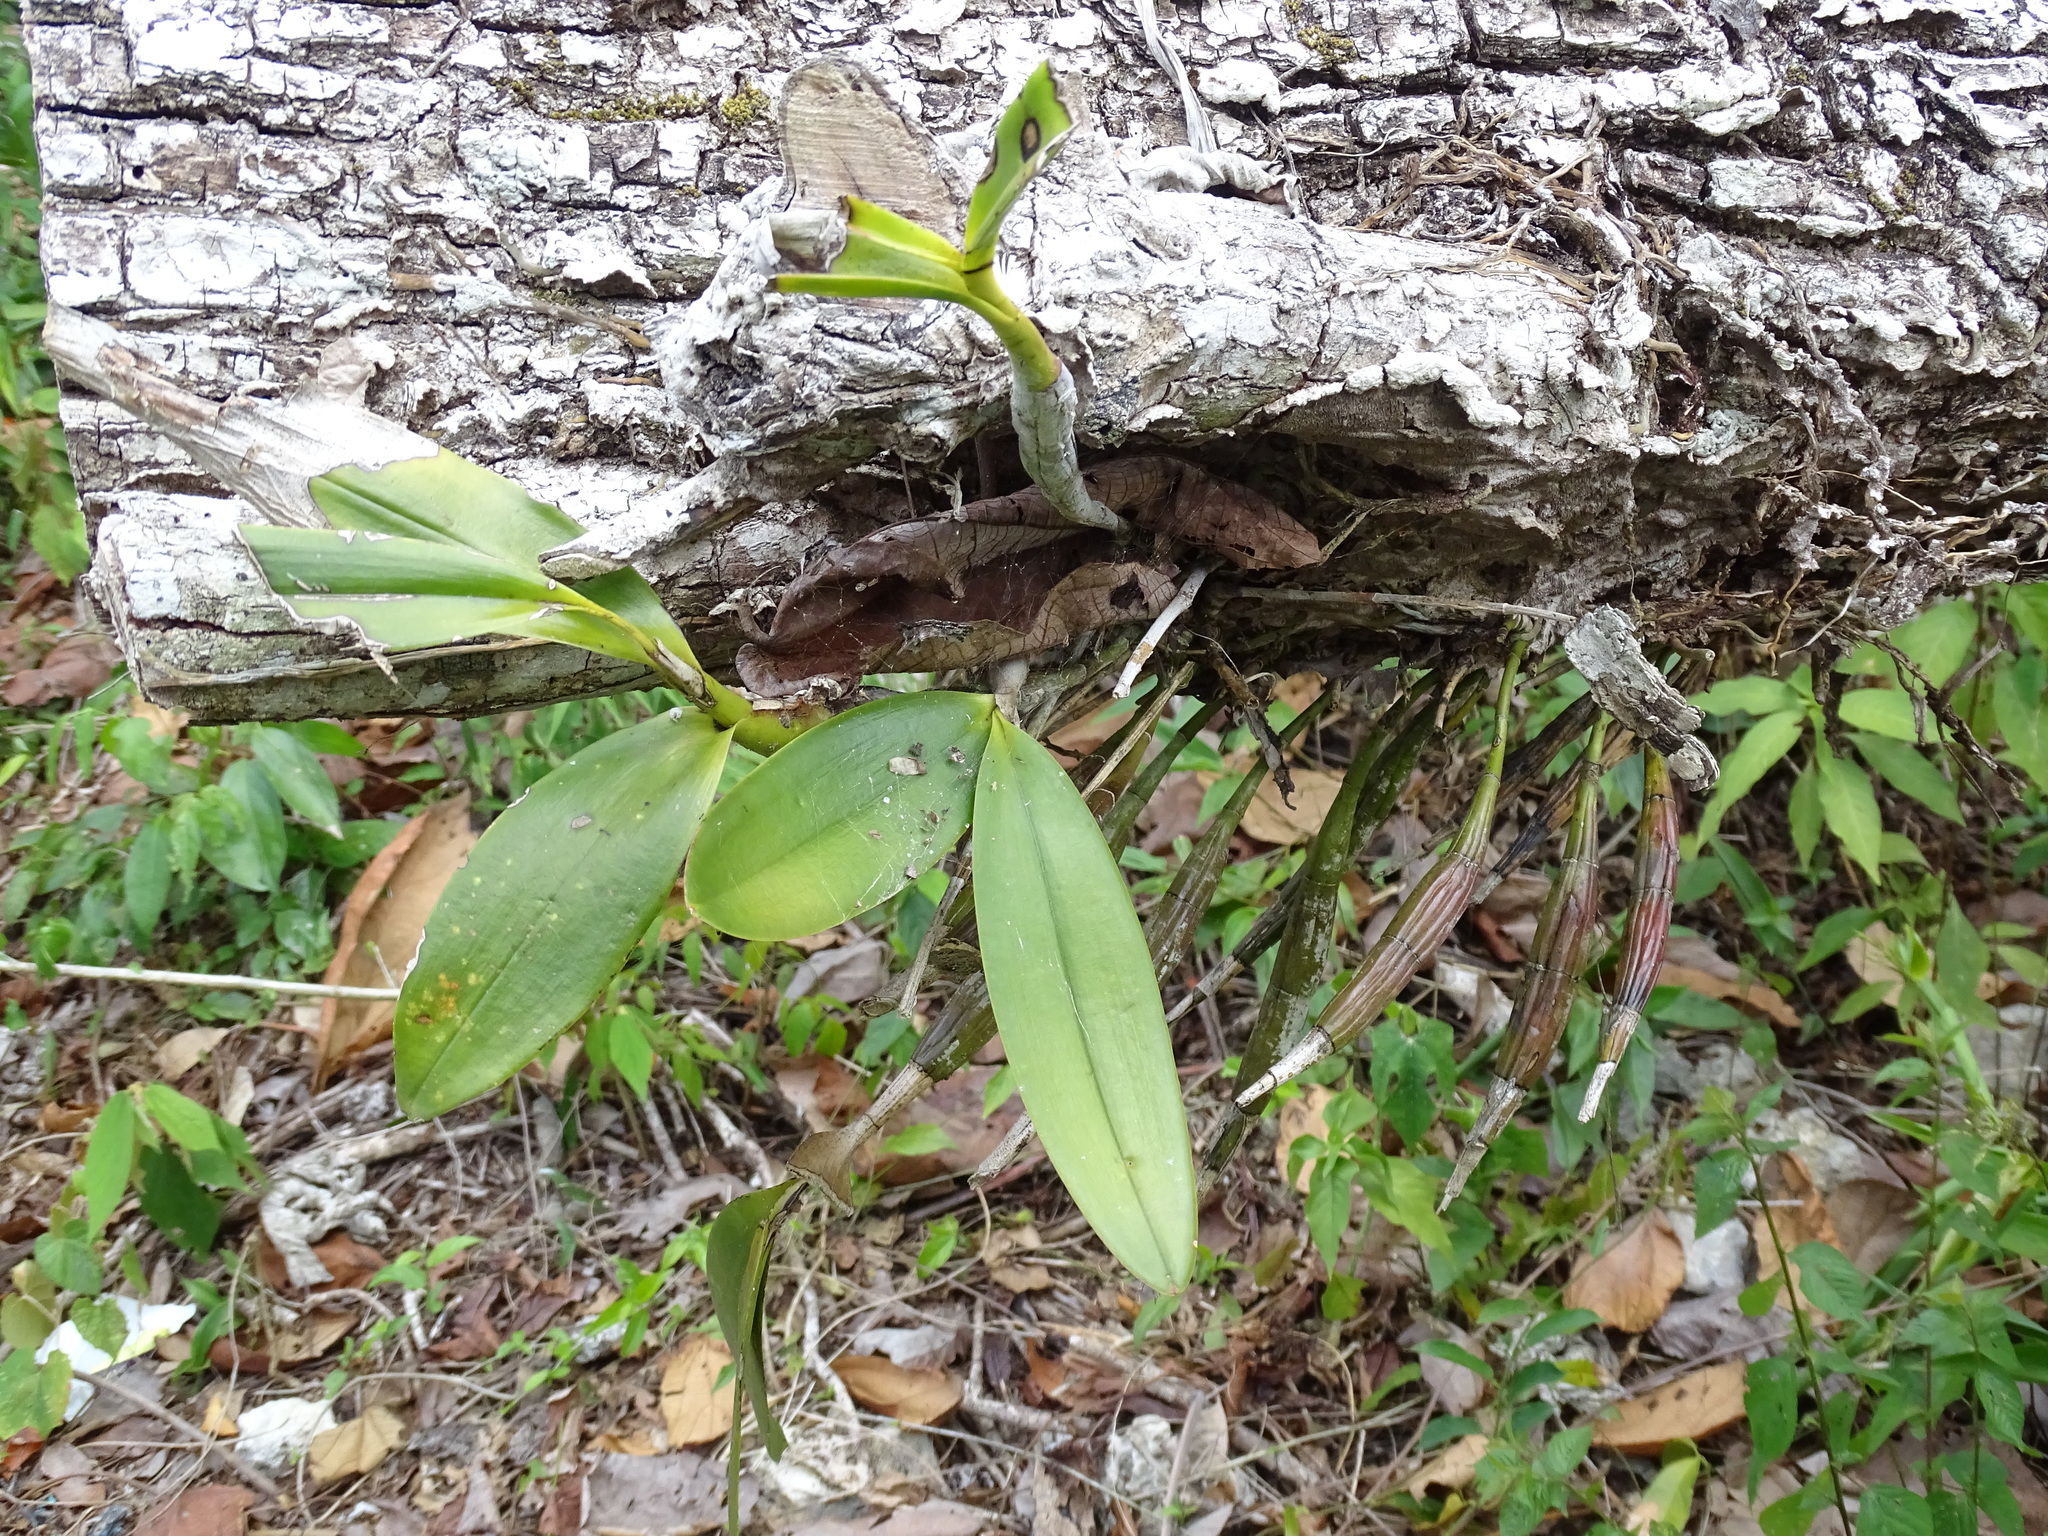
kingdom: Plantae
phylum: Tracheophyta
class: Liliopsida
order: Asparagales
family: Orchidaceae
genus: Epidendrum
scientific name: Epidendrum stamfordianum
